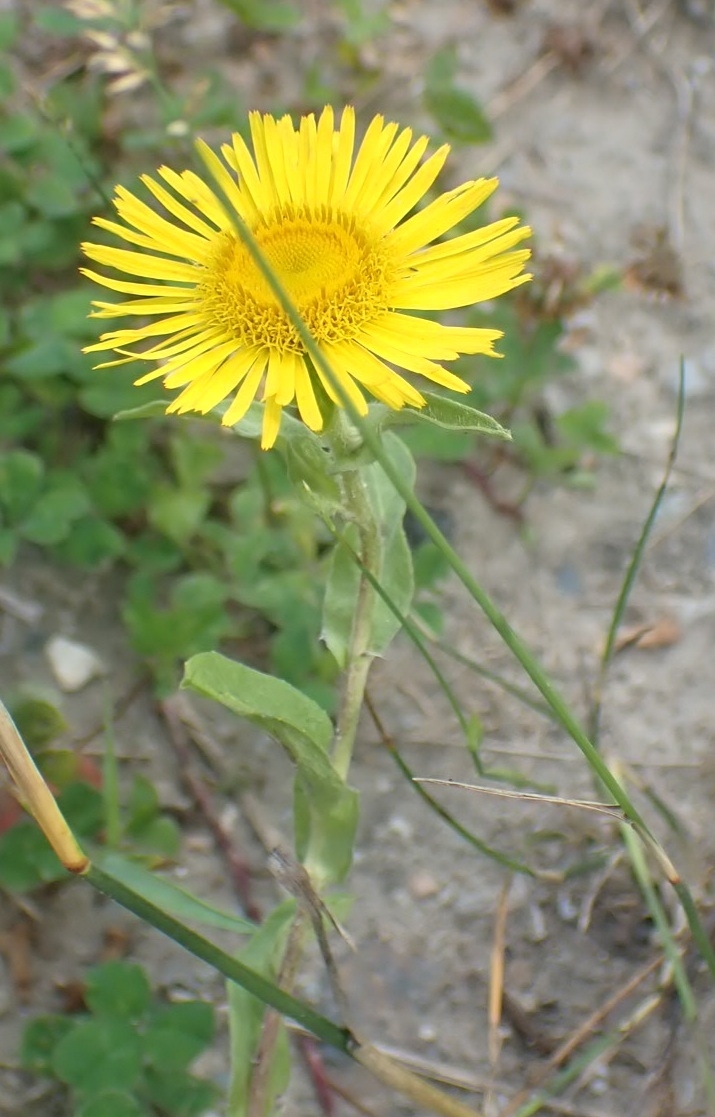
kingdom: Plantae
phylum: Tracheophyta
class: Magnoliopsida
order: Asterales
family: Asteraceae
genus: Pentanema
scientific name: Pentanema britannicum
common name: British elecampane
